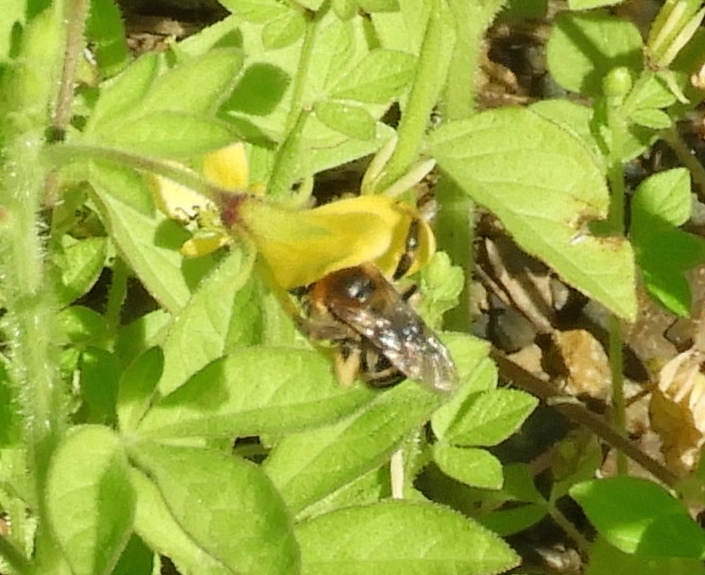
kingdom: Animalia
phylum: Arthropoda
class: Insecta
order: Hymenoptera
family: Apidae
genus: Apidae
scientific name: Apidae
